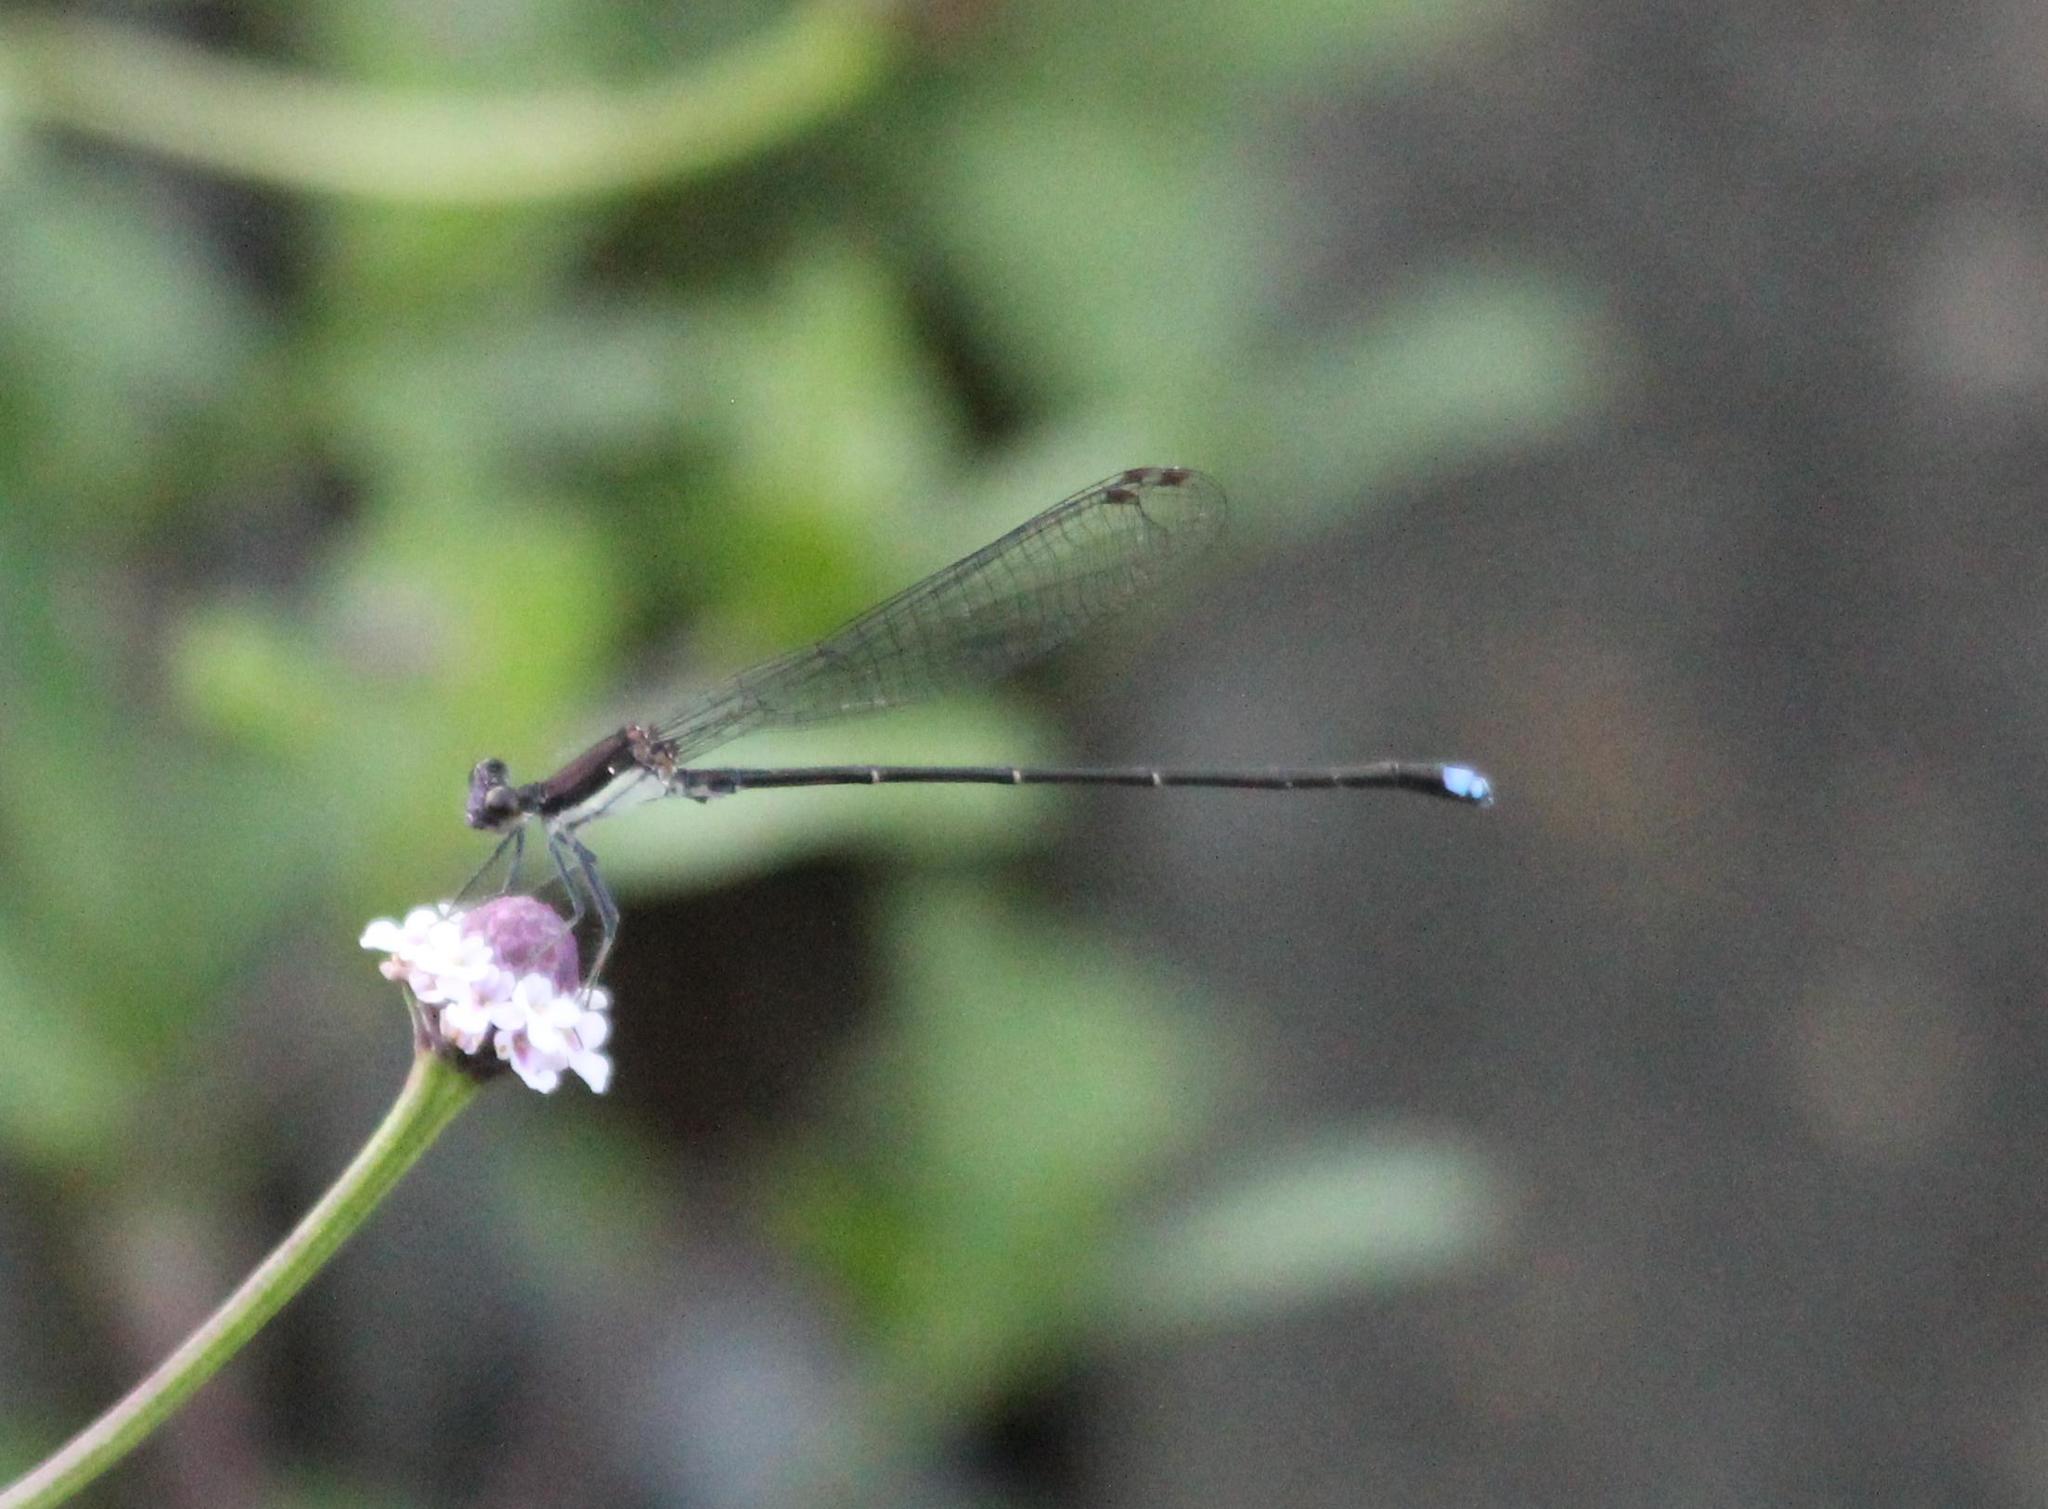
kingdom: Animalia
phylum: Arthropoda
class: Insecta
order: Odonata
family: Coenagrionidae
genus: Argia
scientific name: Argia tibialis
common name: Blue-tipped dancer
